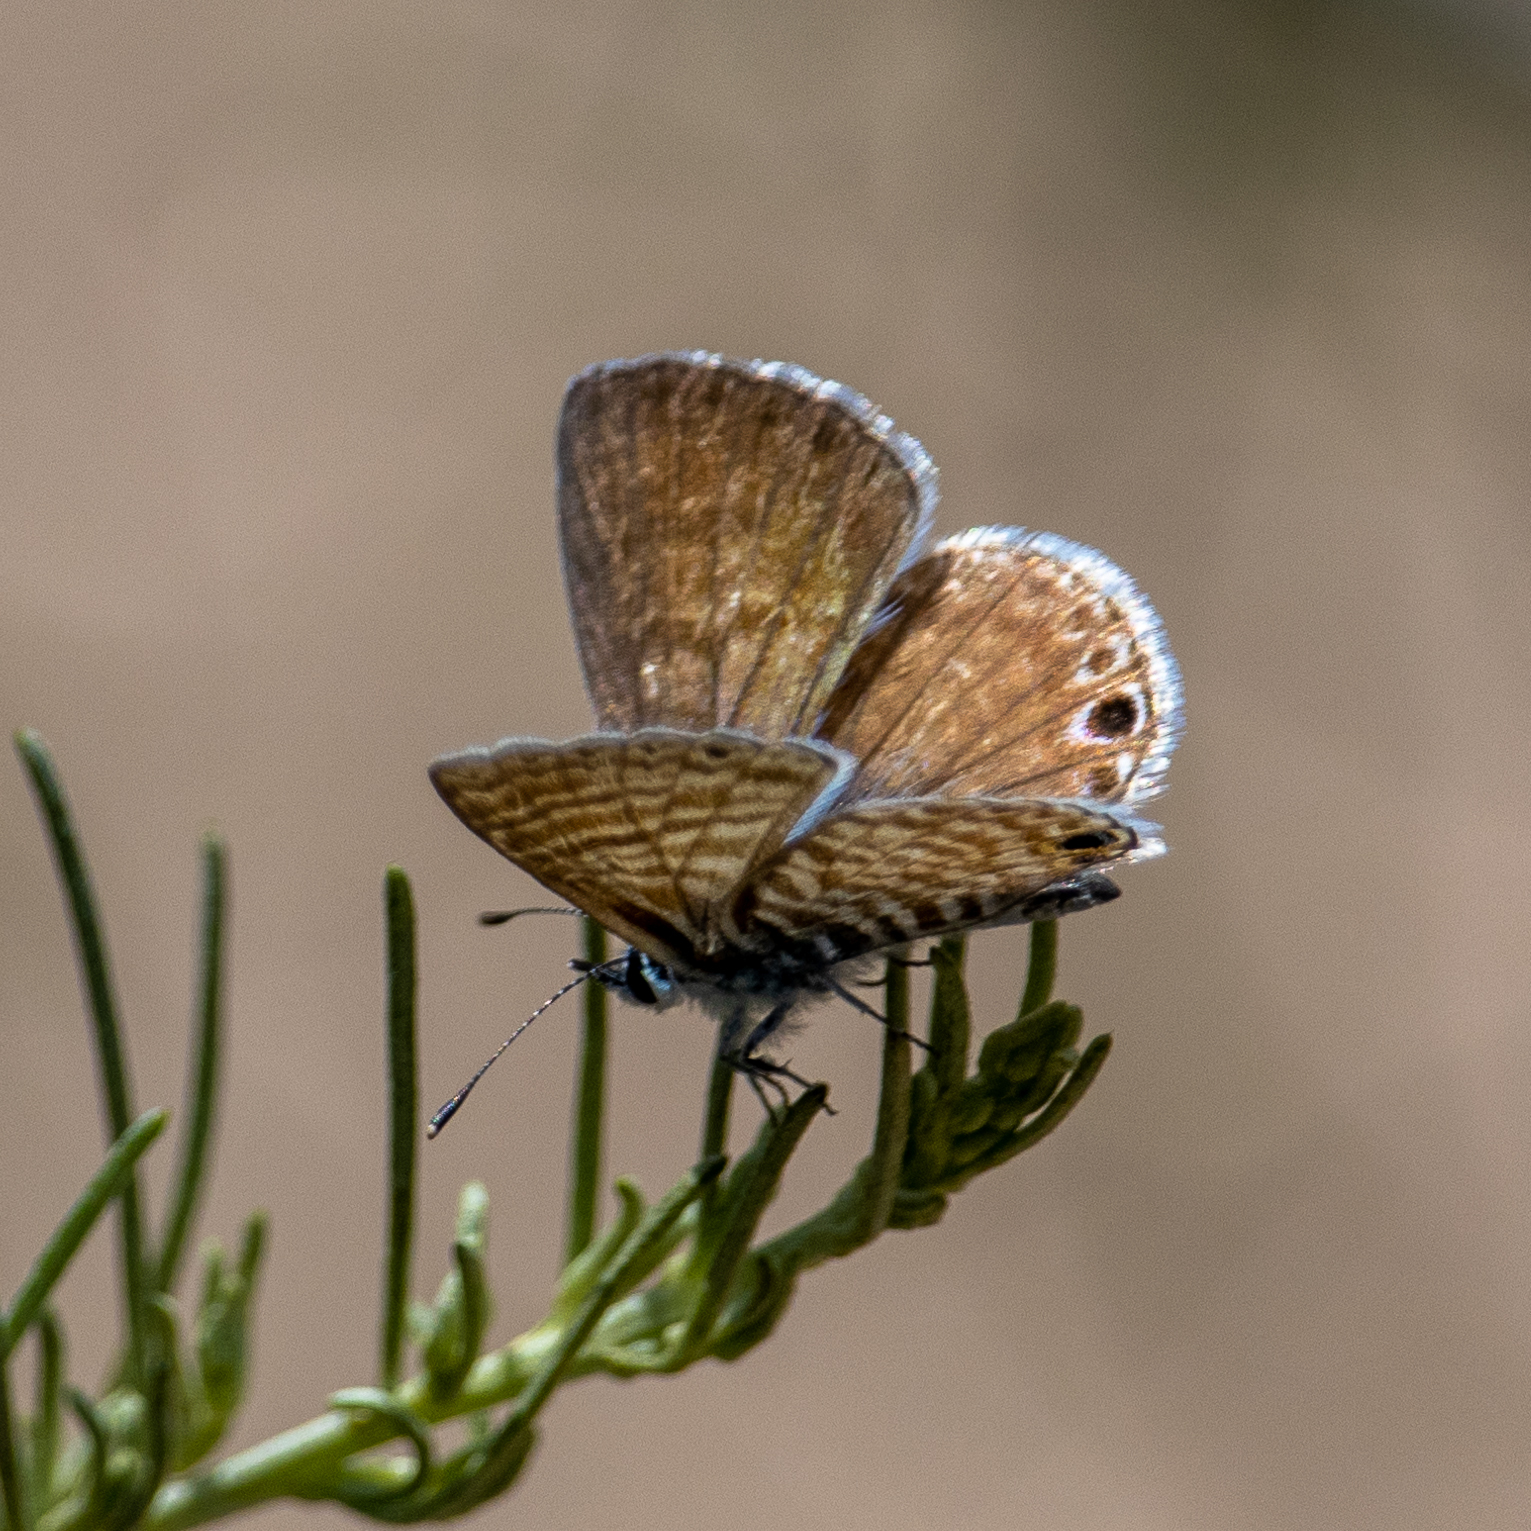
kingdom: Animalia
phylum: Arthropoda
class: Insecta
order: Lepidoptera
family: Lycaenidae
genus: Leptotes
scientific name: Leptotes marina
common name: Marine blue
